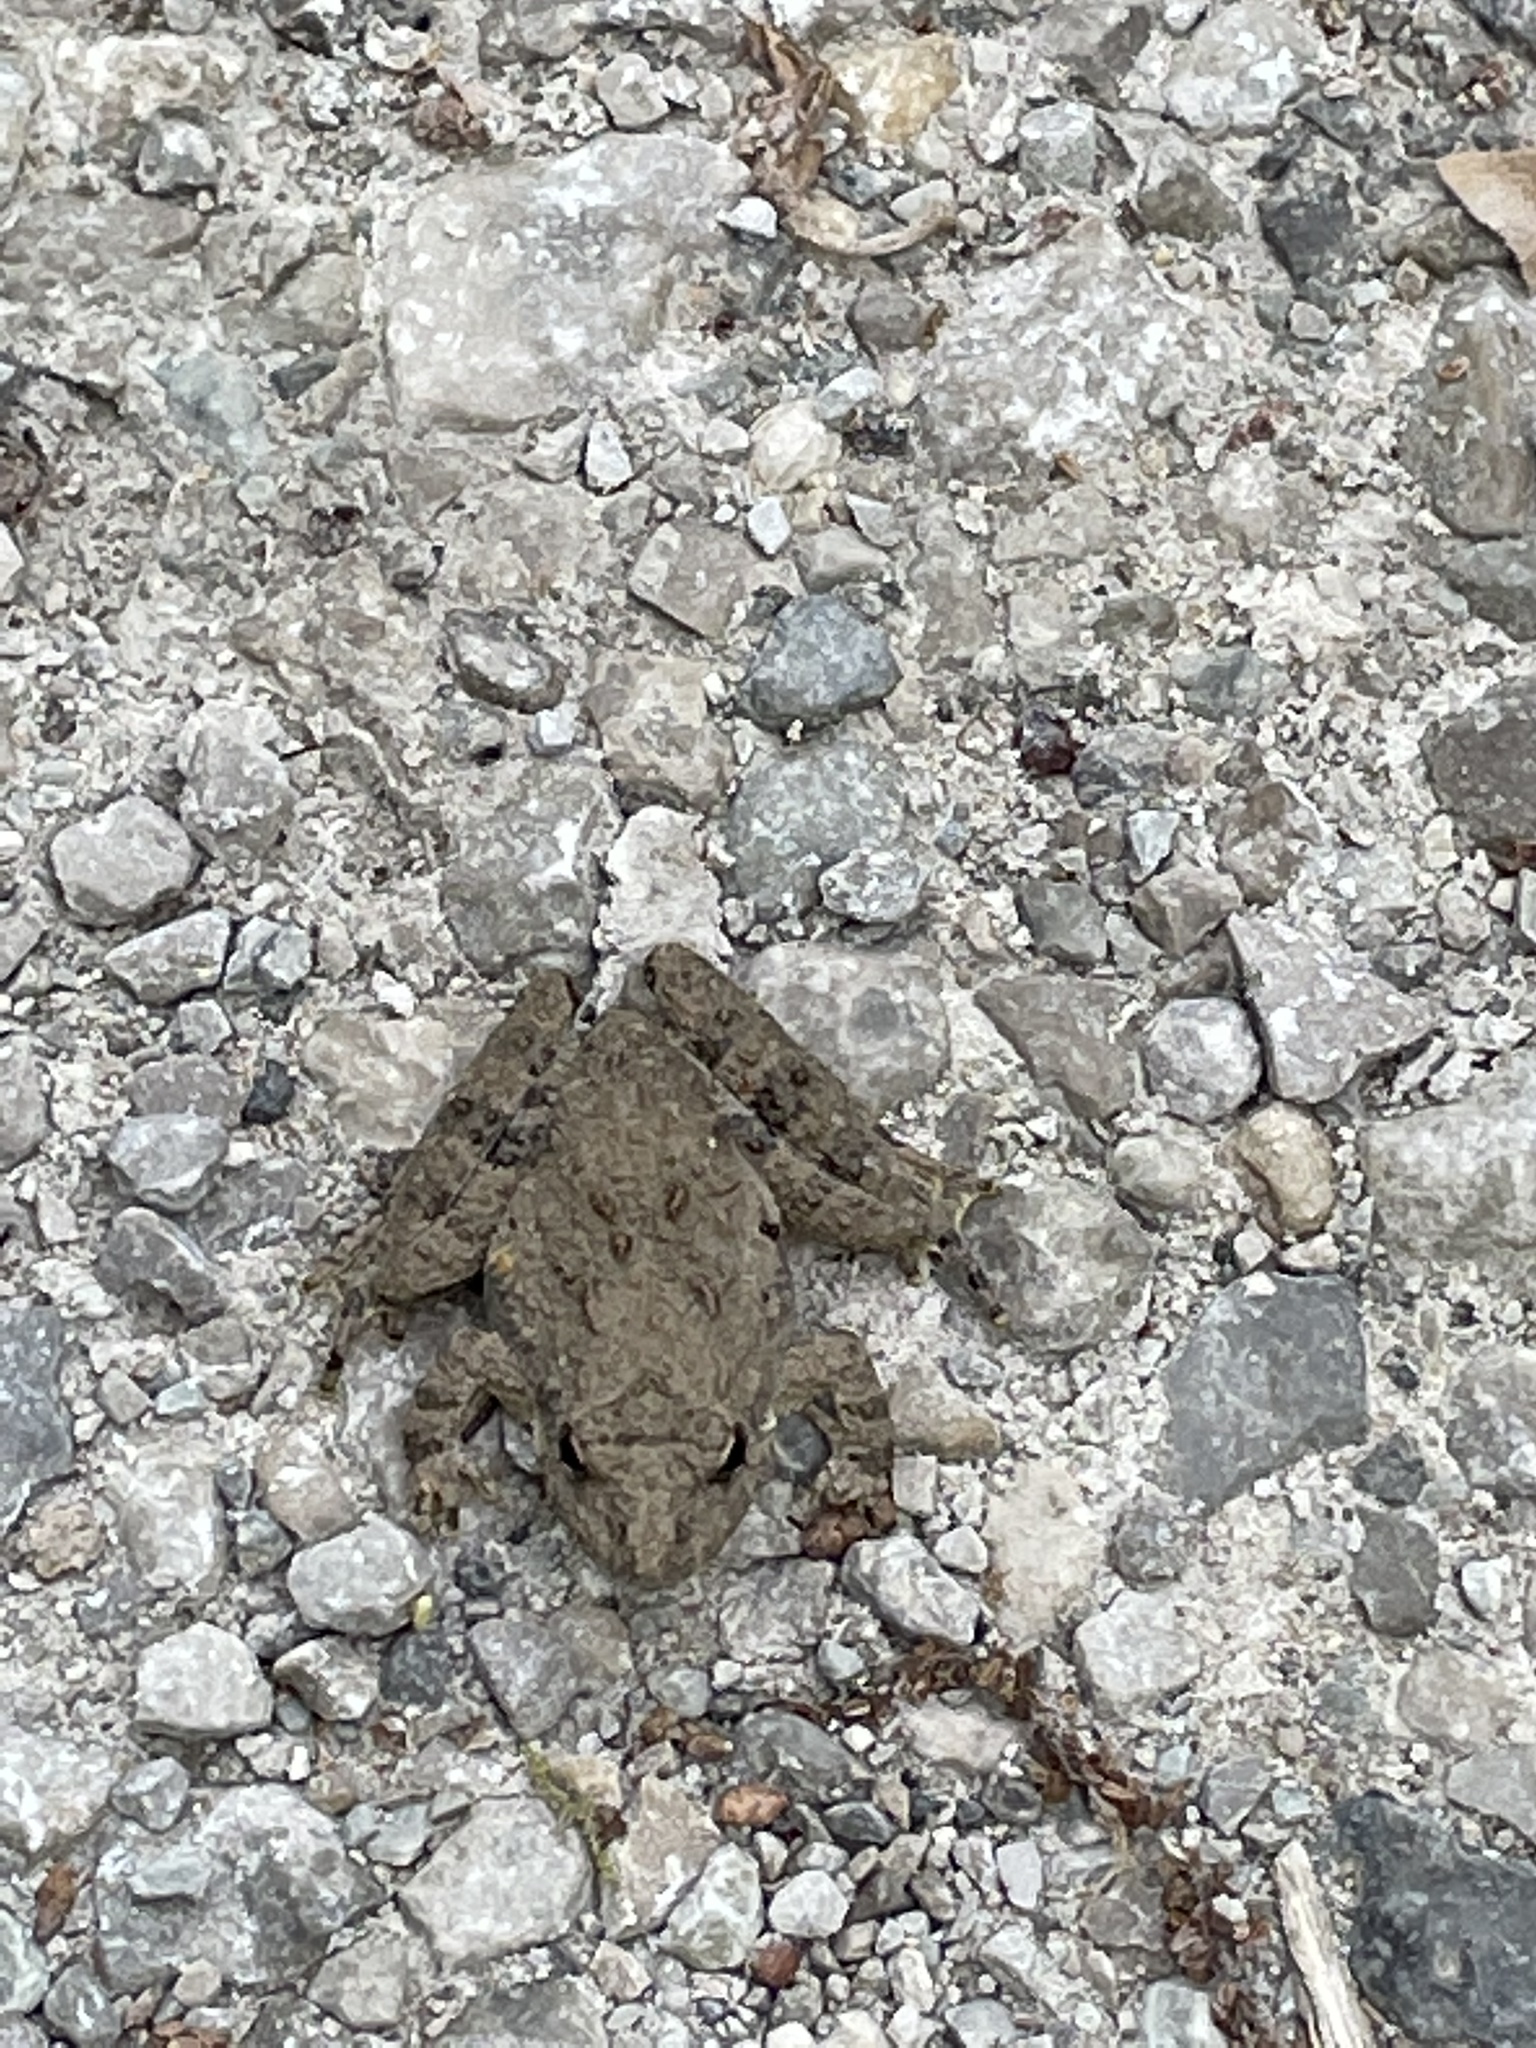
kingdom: Animalia
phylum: Chordata
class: Amphibia
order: Anura
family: Hylidae
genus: Acris
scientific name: Acris blanchardi
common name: Blanchard's cricket frog
